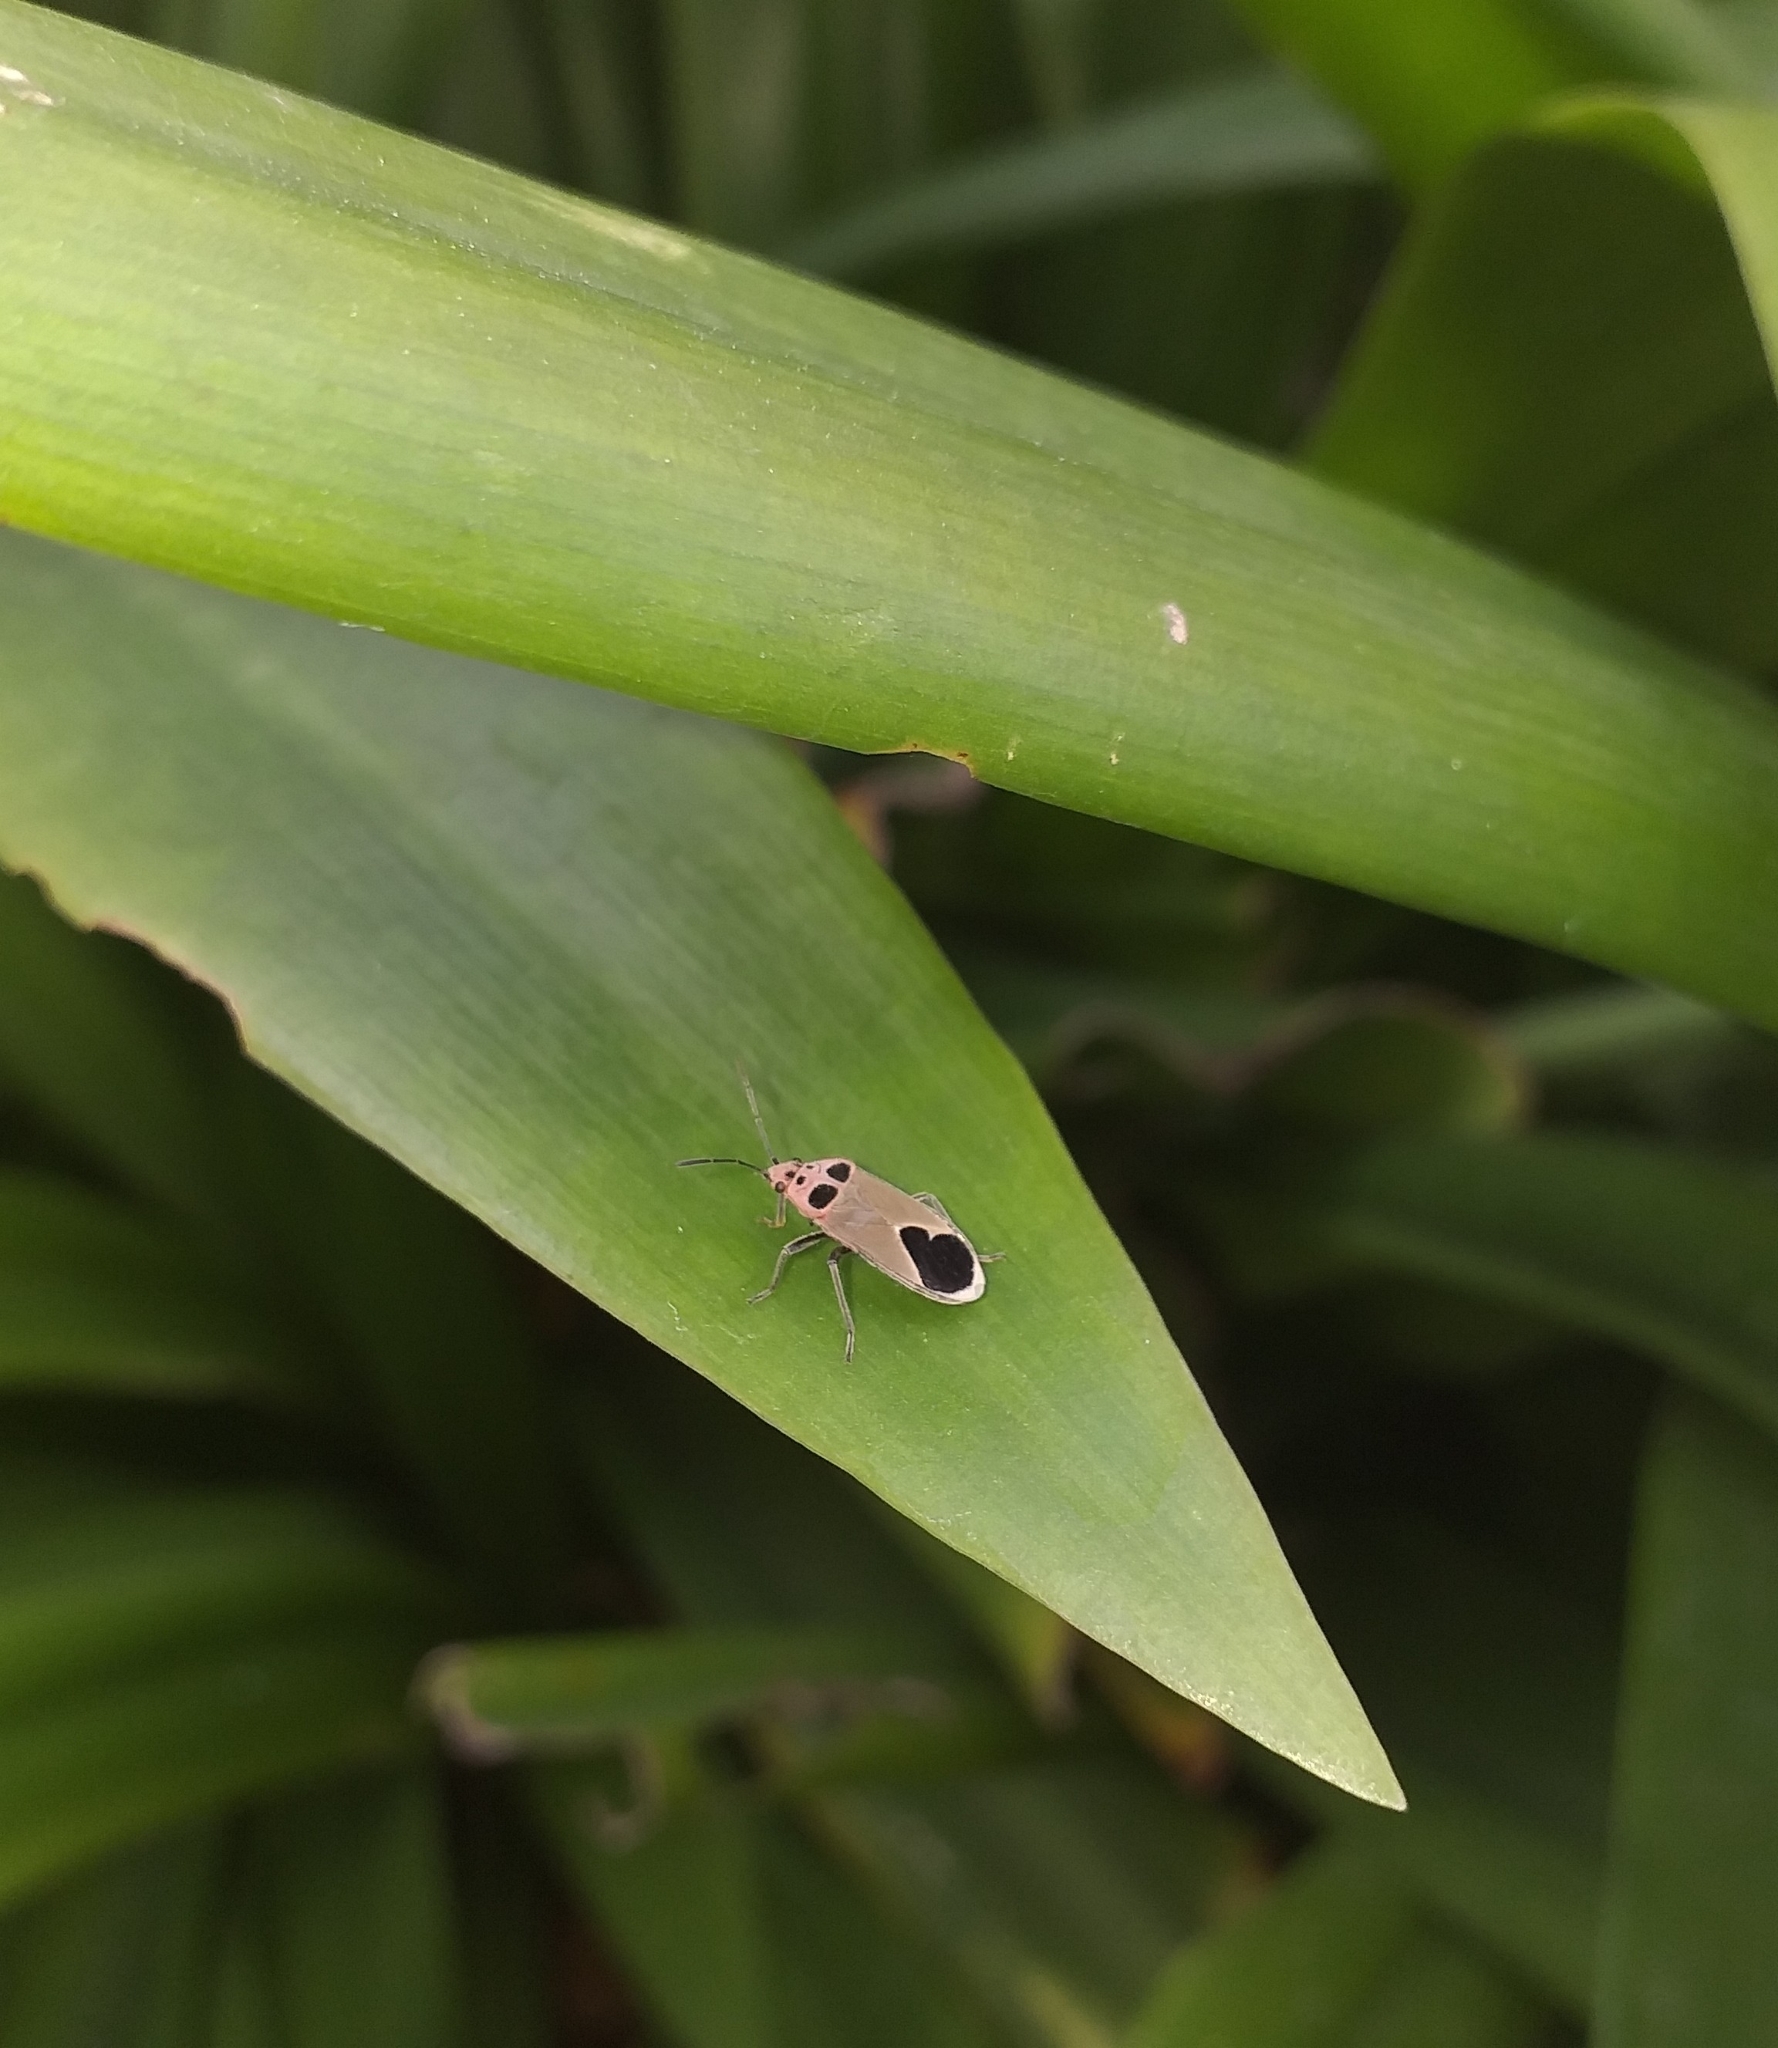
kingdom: Animalia
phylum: Arthropoda
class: Insecta
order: Hemiptera
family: Lygaeidae
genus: Graptostethus
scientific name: Graptostethus argentatus
